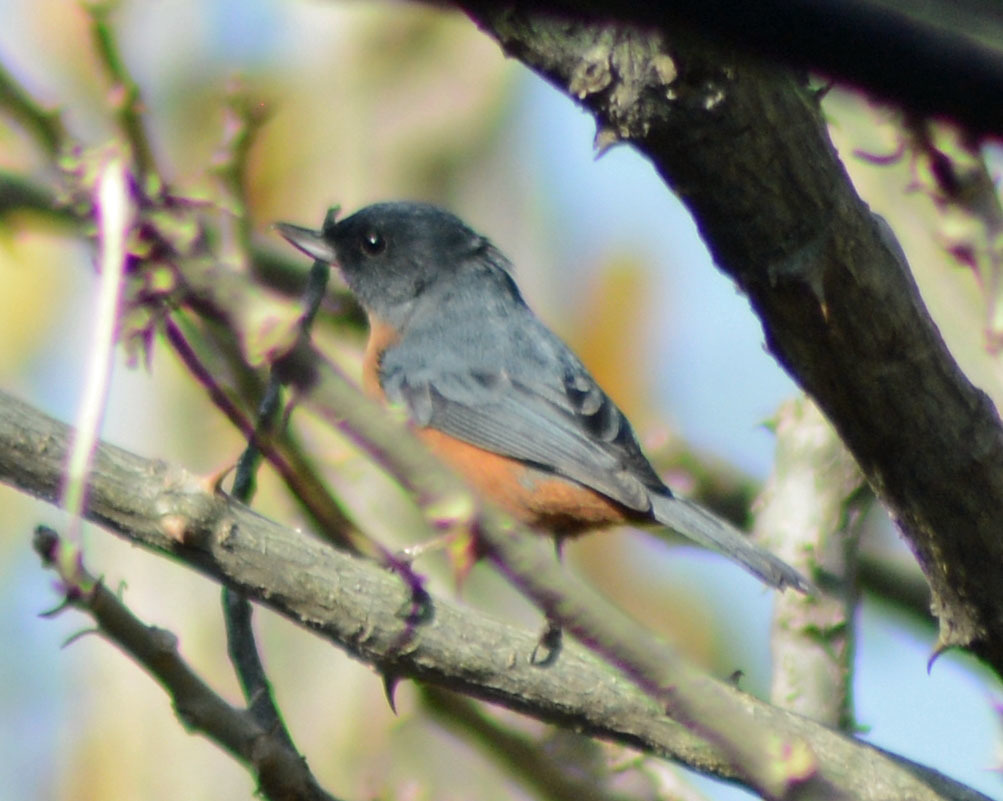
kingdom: Animalia
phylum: Chordata
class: Aves
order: Passeriformes
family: Thraupidae
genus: Diglossa
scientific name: Diglossa baritula
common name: Cinnamon-bellied flowerpiercer
